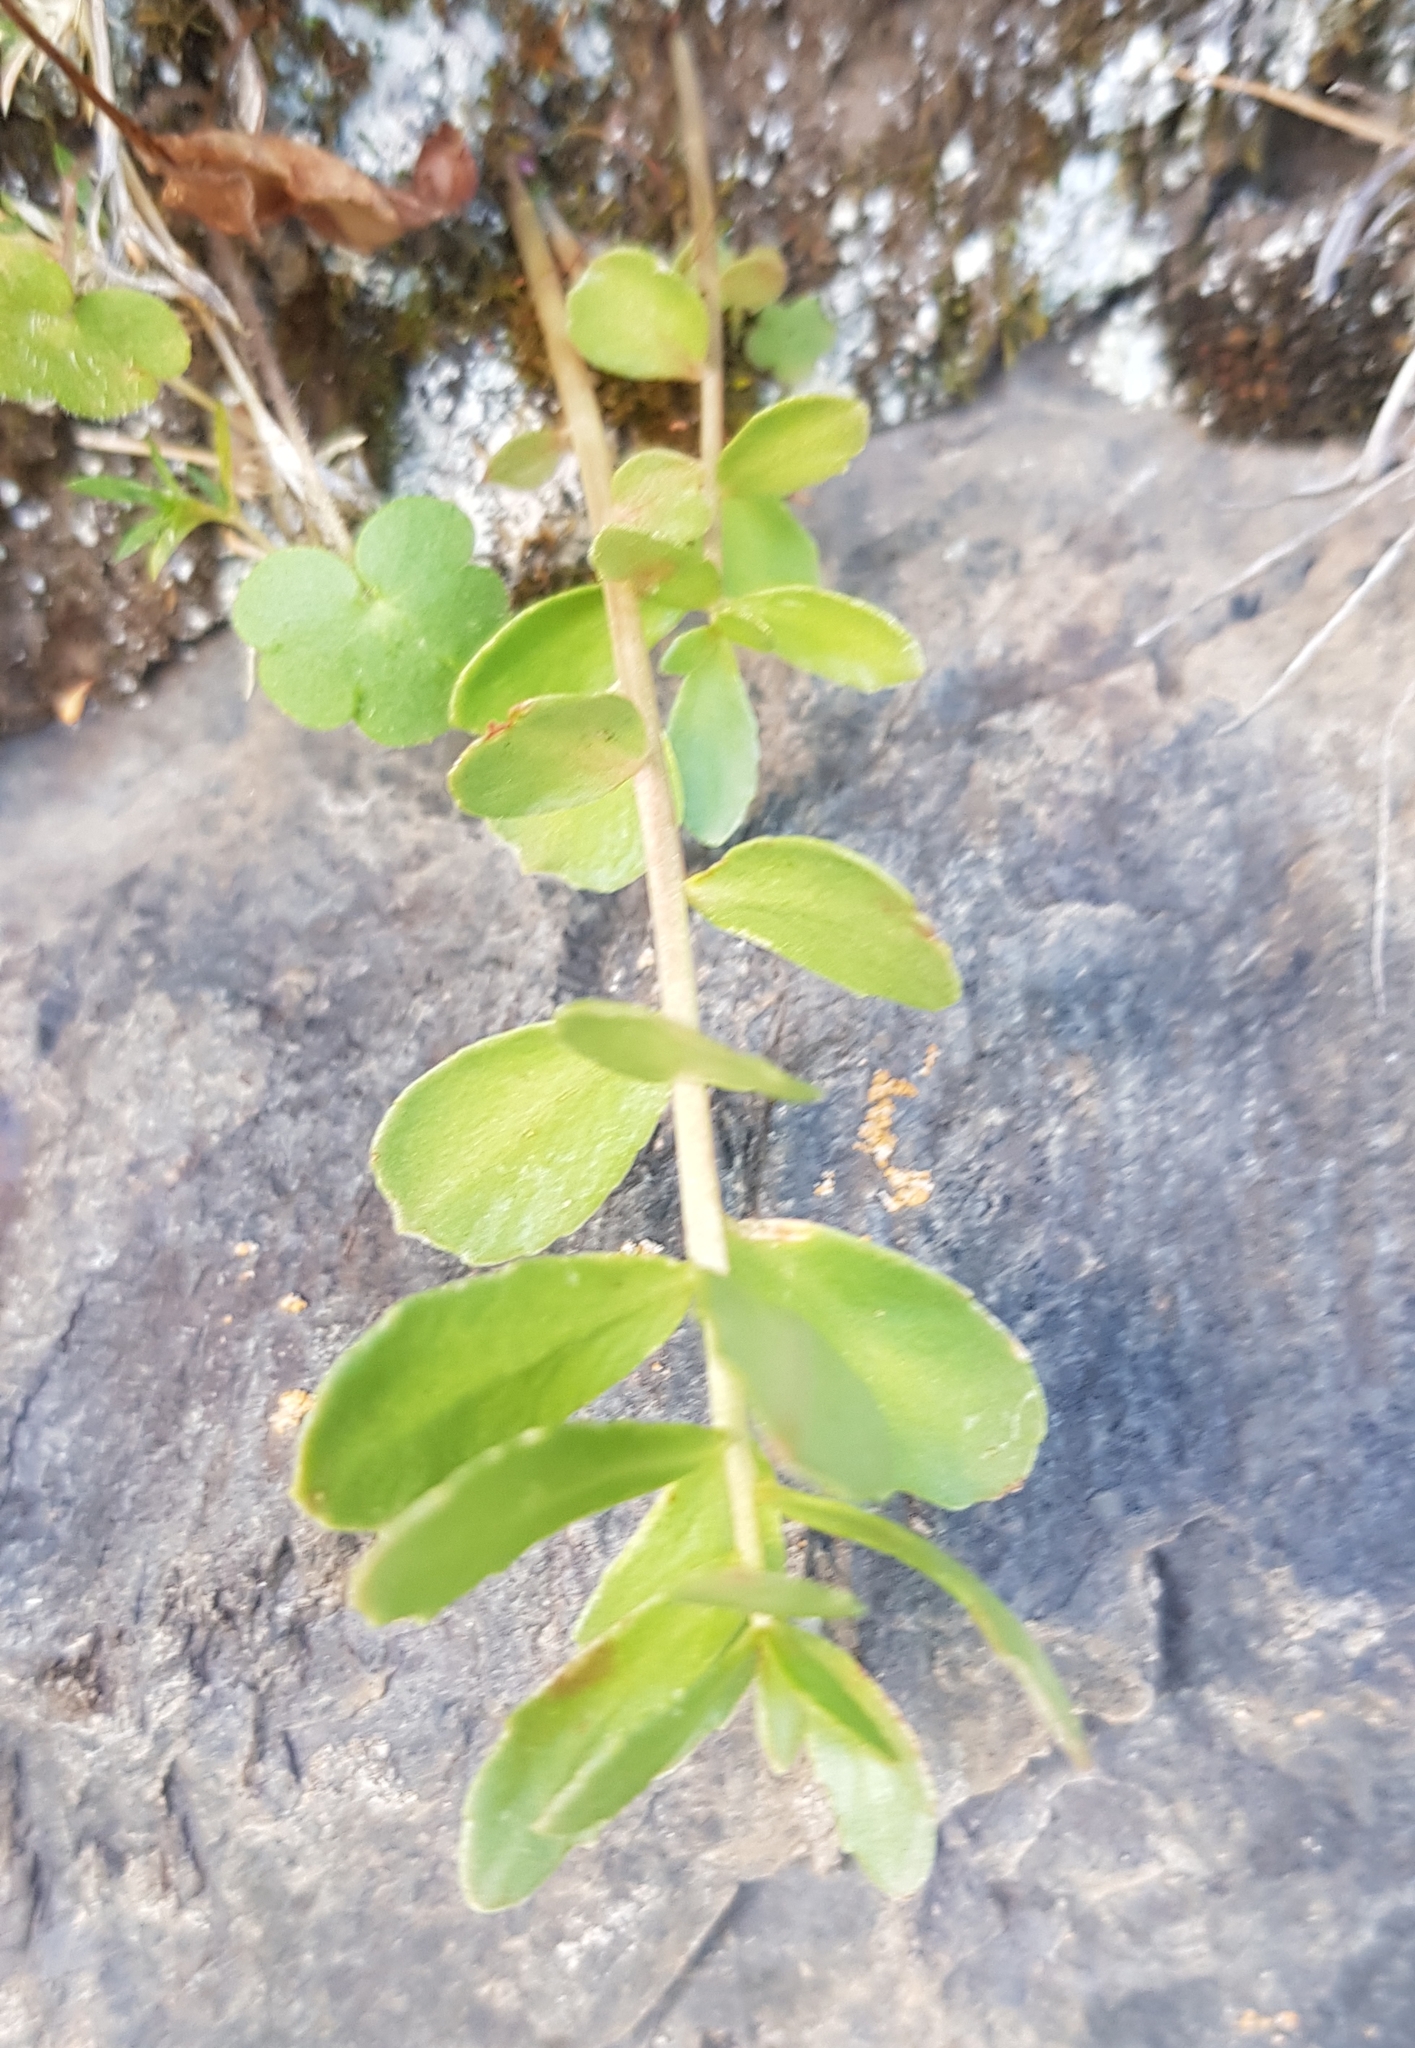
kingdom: Plantae
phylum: Tracheophyta
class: Magnoliopsida
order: Saxifragales
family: Crassulaceae
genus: Phedimus
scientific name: Phedimus aizoon
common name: Orpin aizoon
